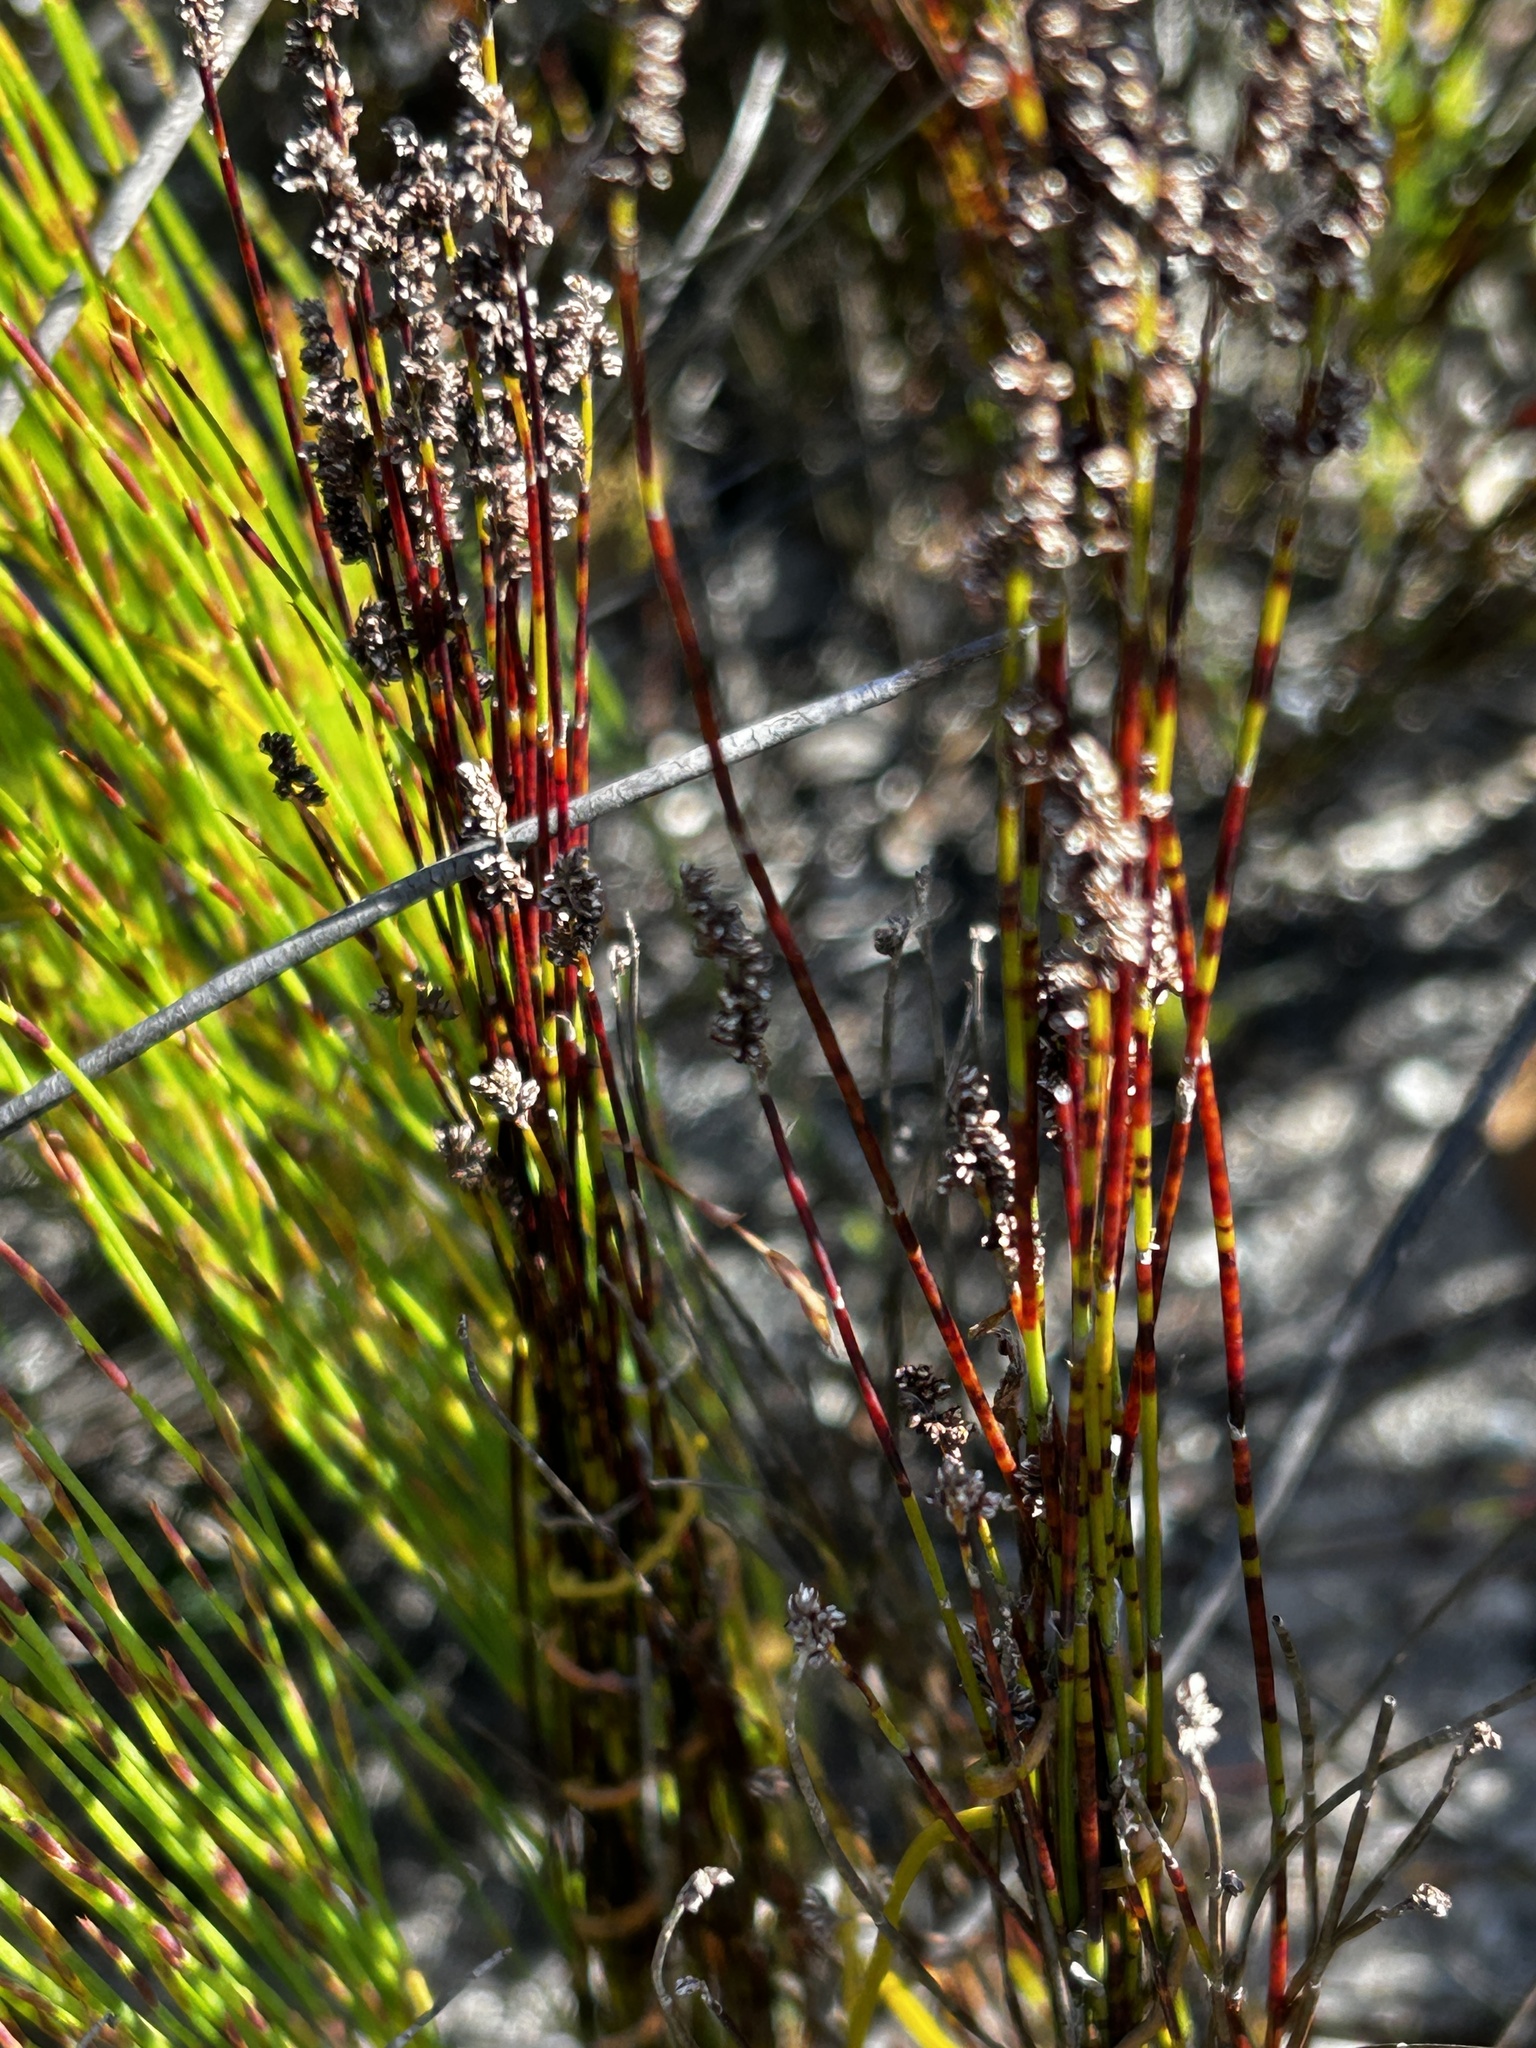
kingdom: Plantae
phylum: Tracheophyta
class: Liliopsida
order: Poales
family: Restionaceae
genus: Elegia
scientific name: Elegia microcarpa
